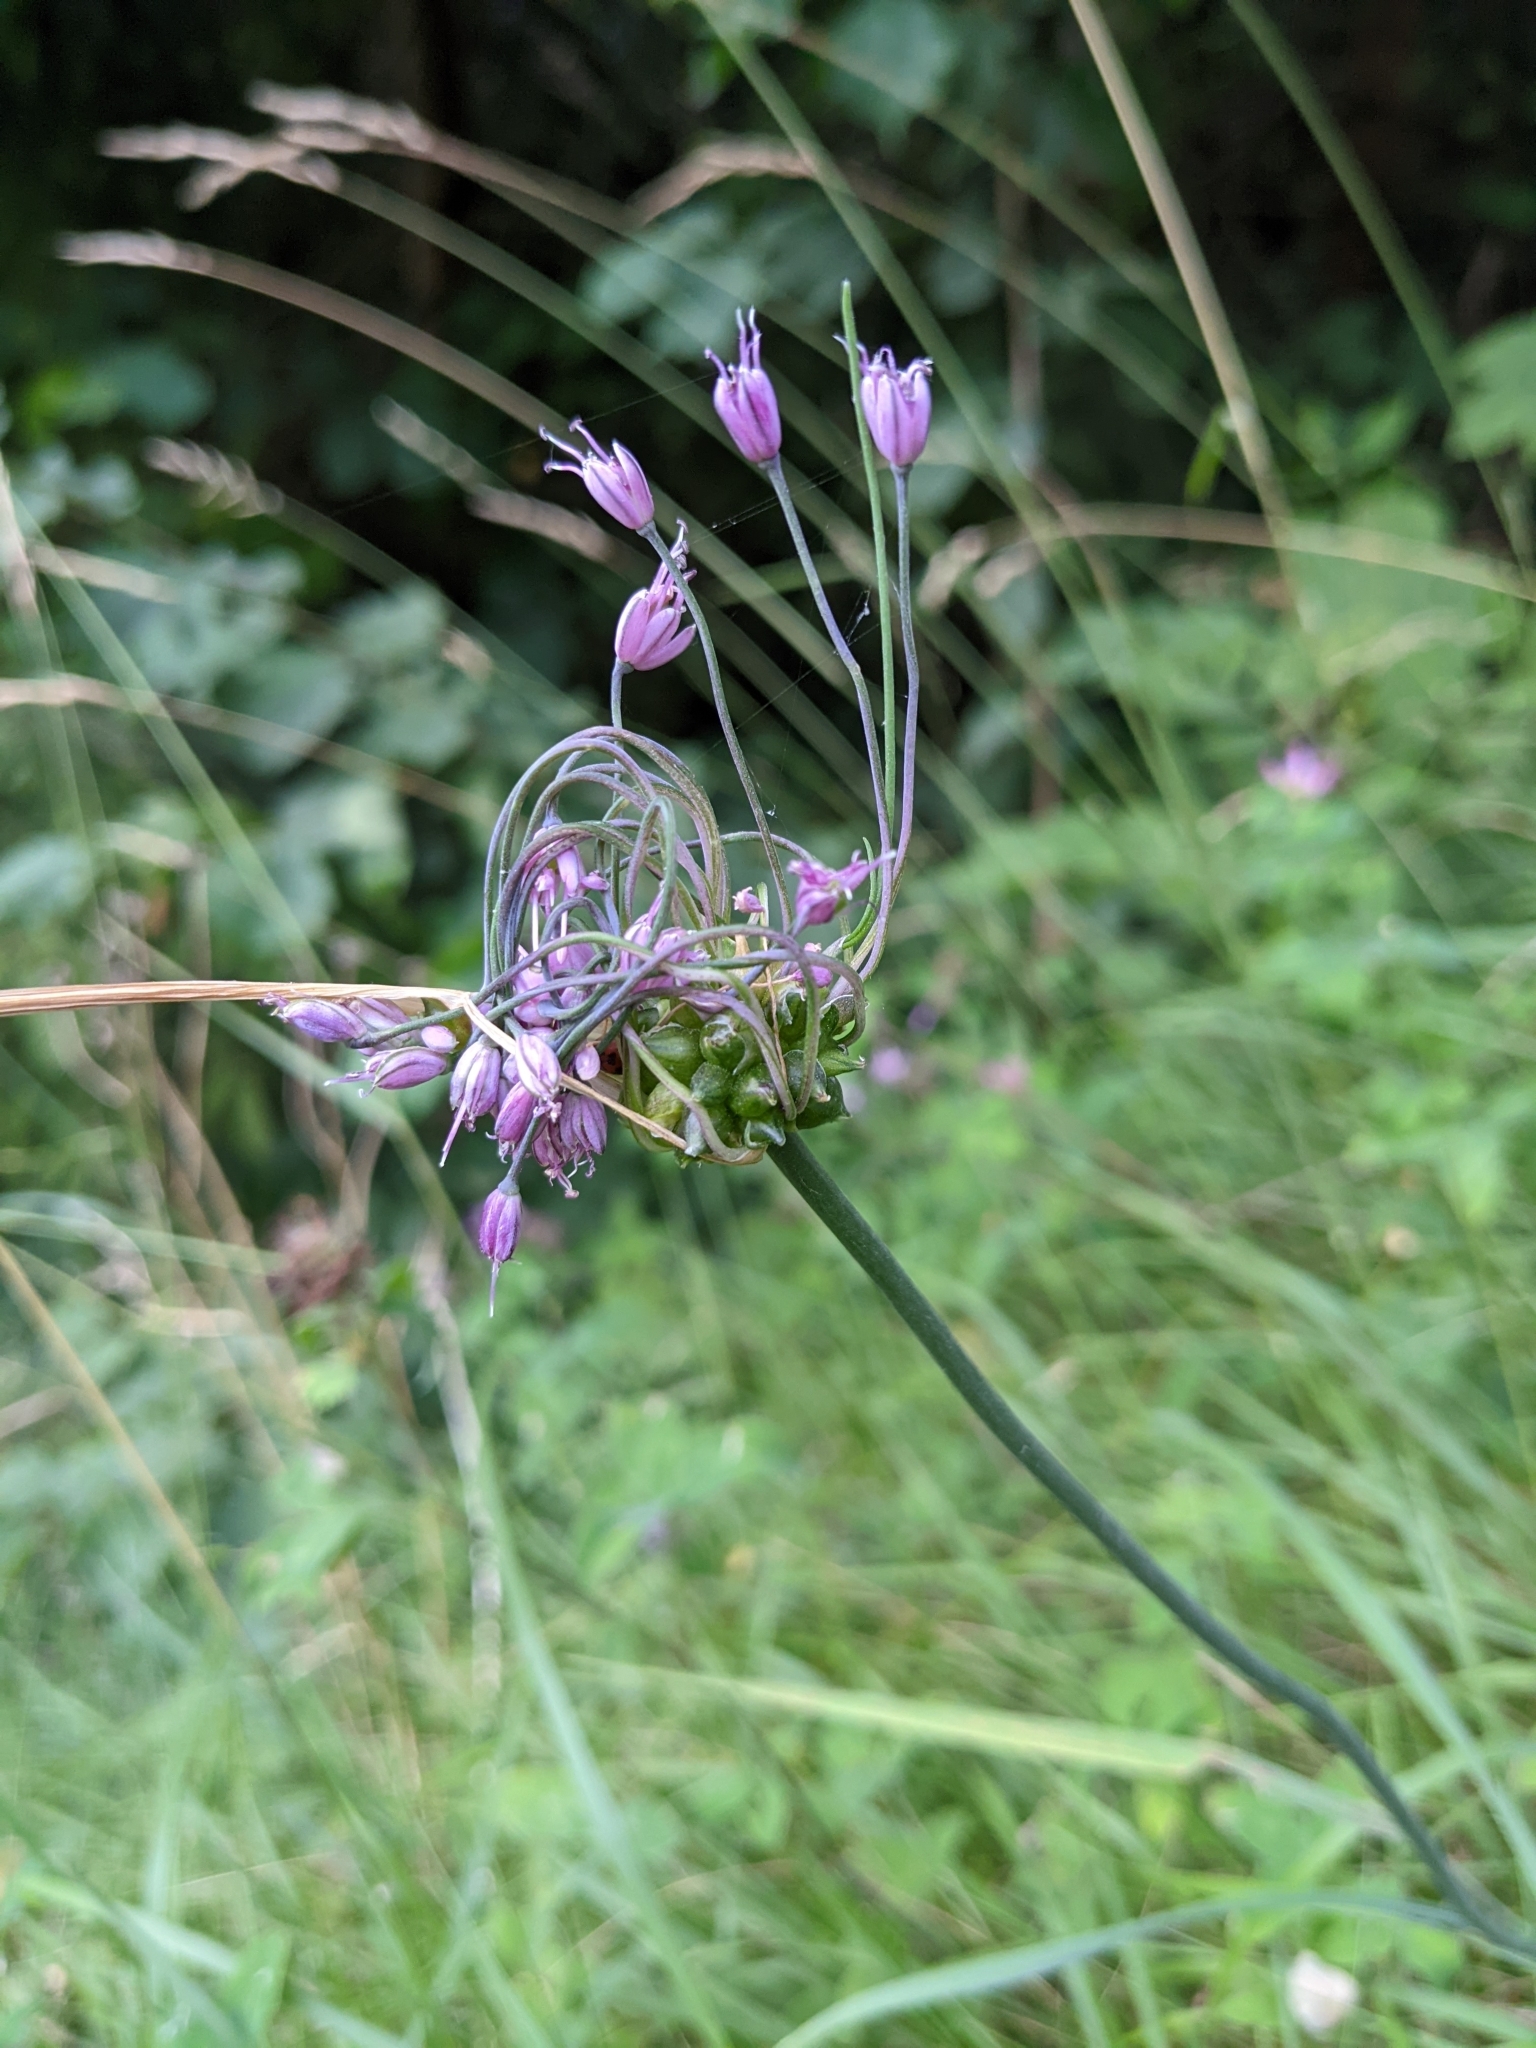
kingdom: Plantae
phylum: Tracheophyta
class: Liliopsida
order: Asparagales
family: Amaryllidaceae
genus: Allium
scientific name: Allium carinatum
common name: Keeled garlic
